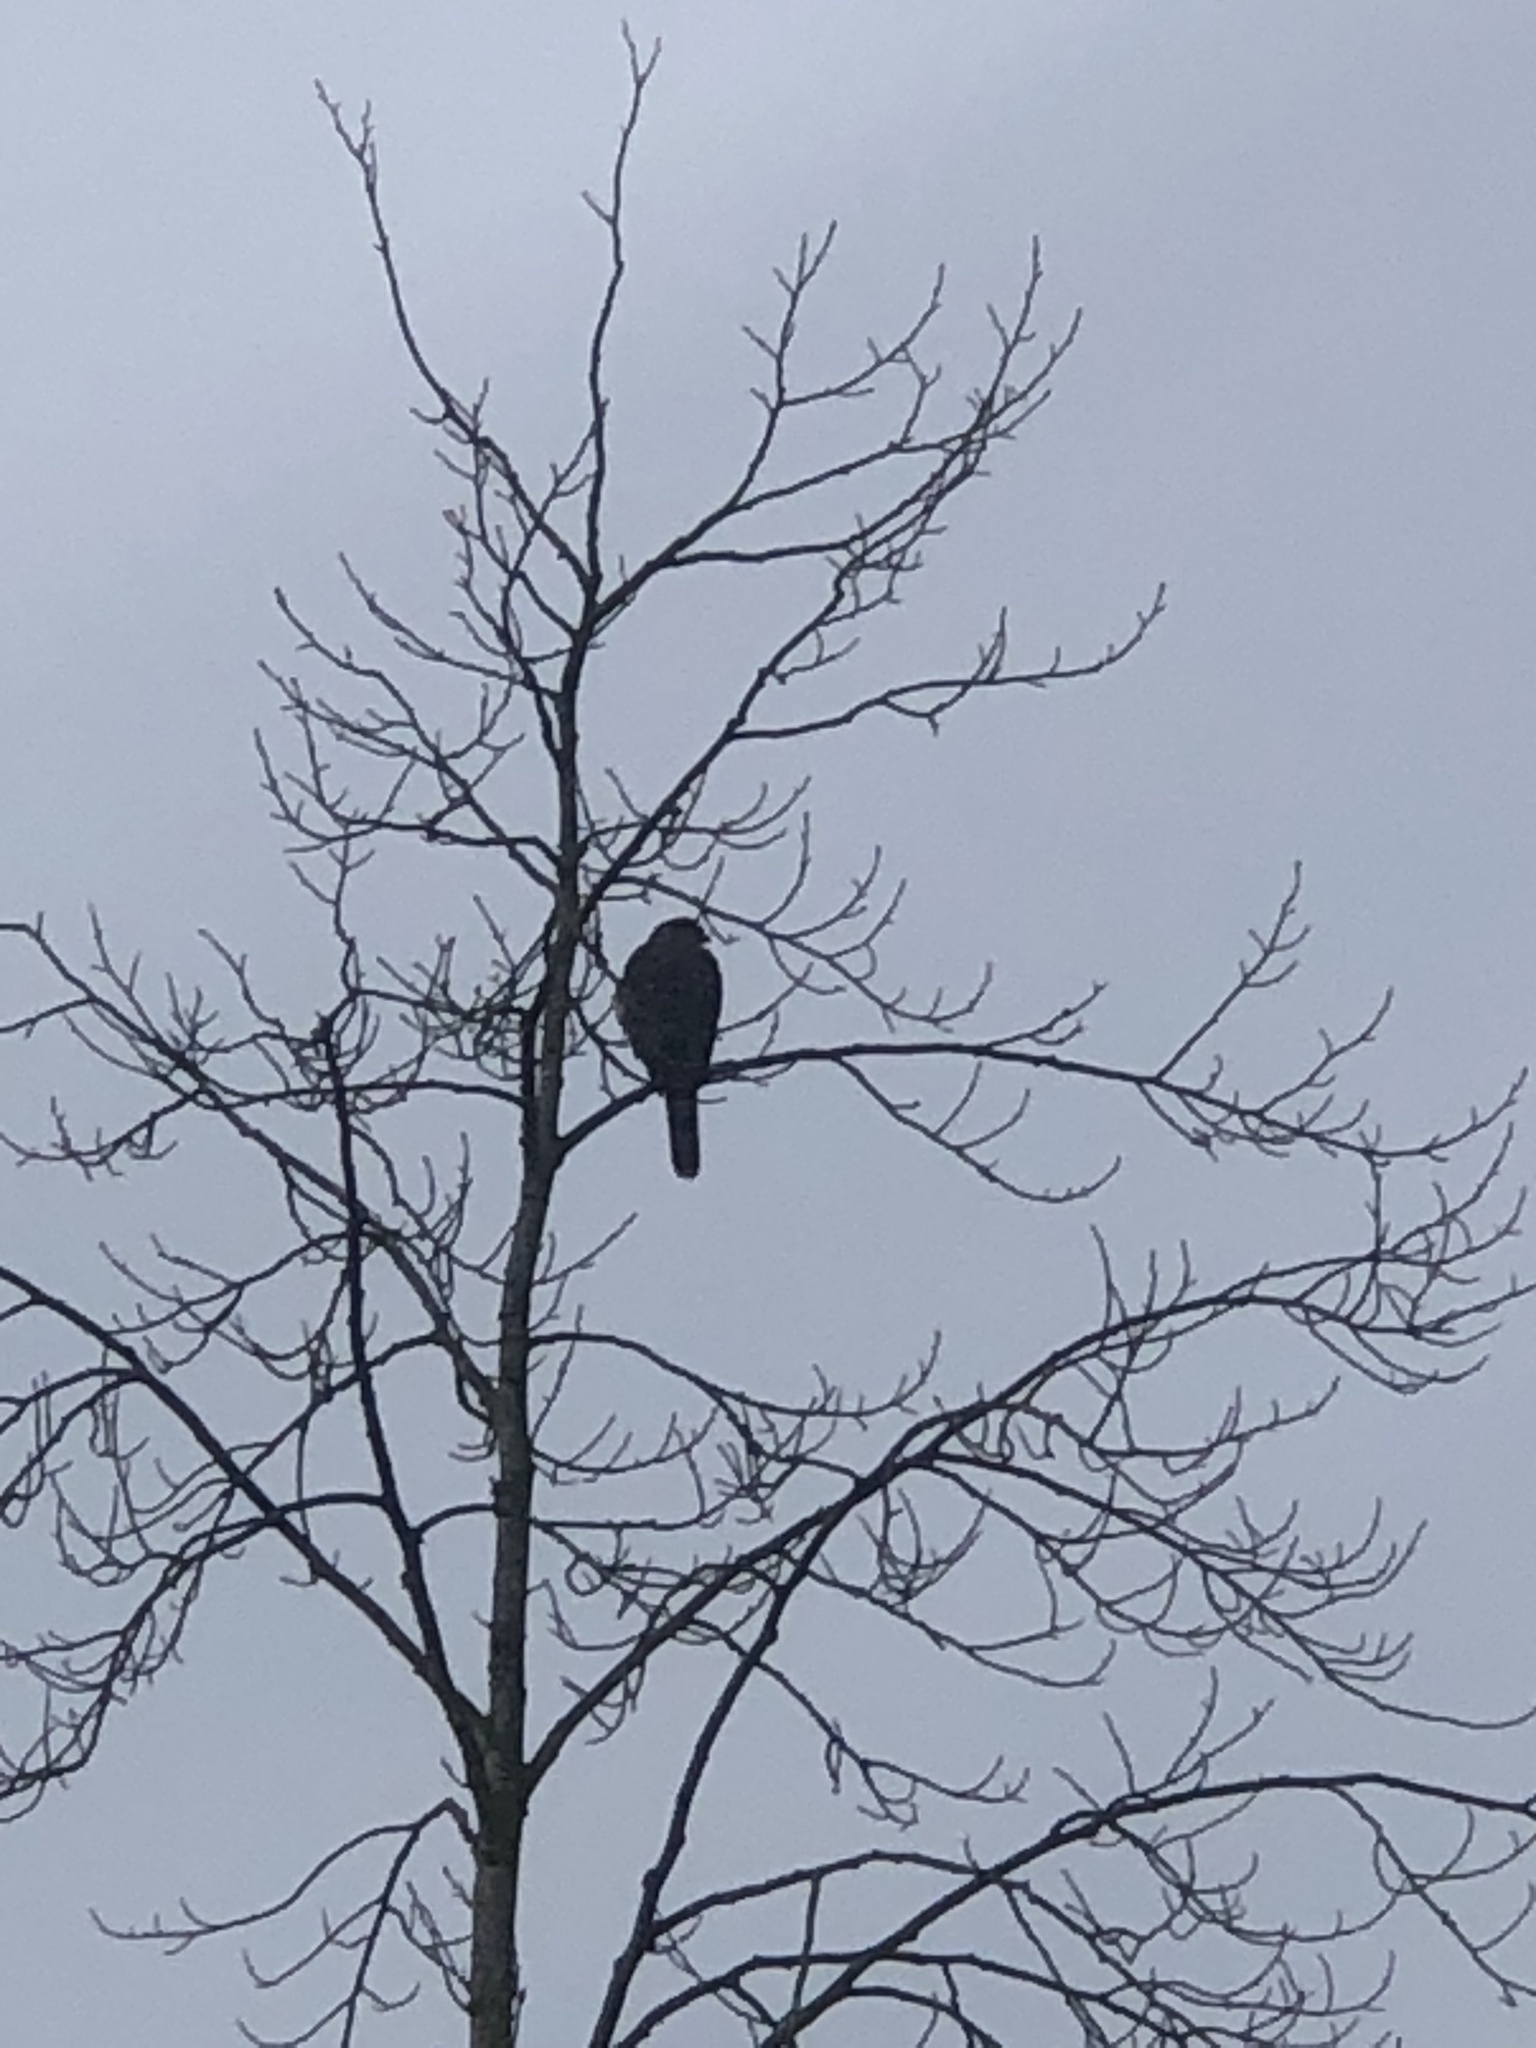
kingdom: Animalia
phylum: Chordata
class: Aves
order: Accipitriformes
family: Accipitridae
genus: Accipiter
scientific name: Accipiter cooperii
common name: Cooper's hawk
